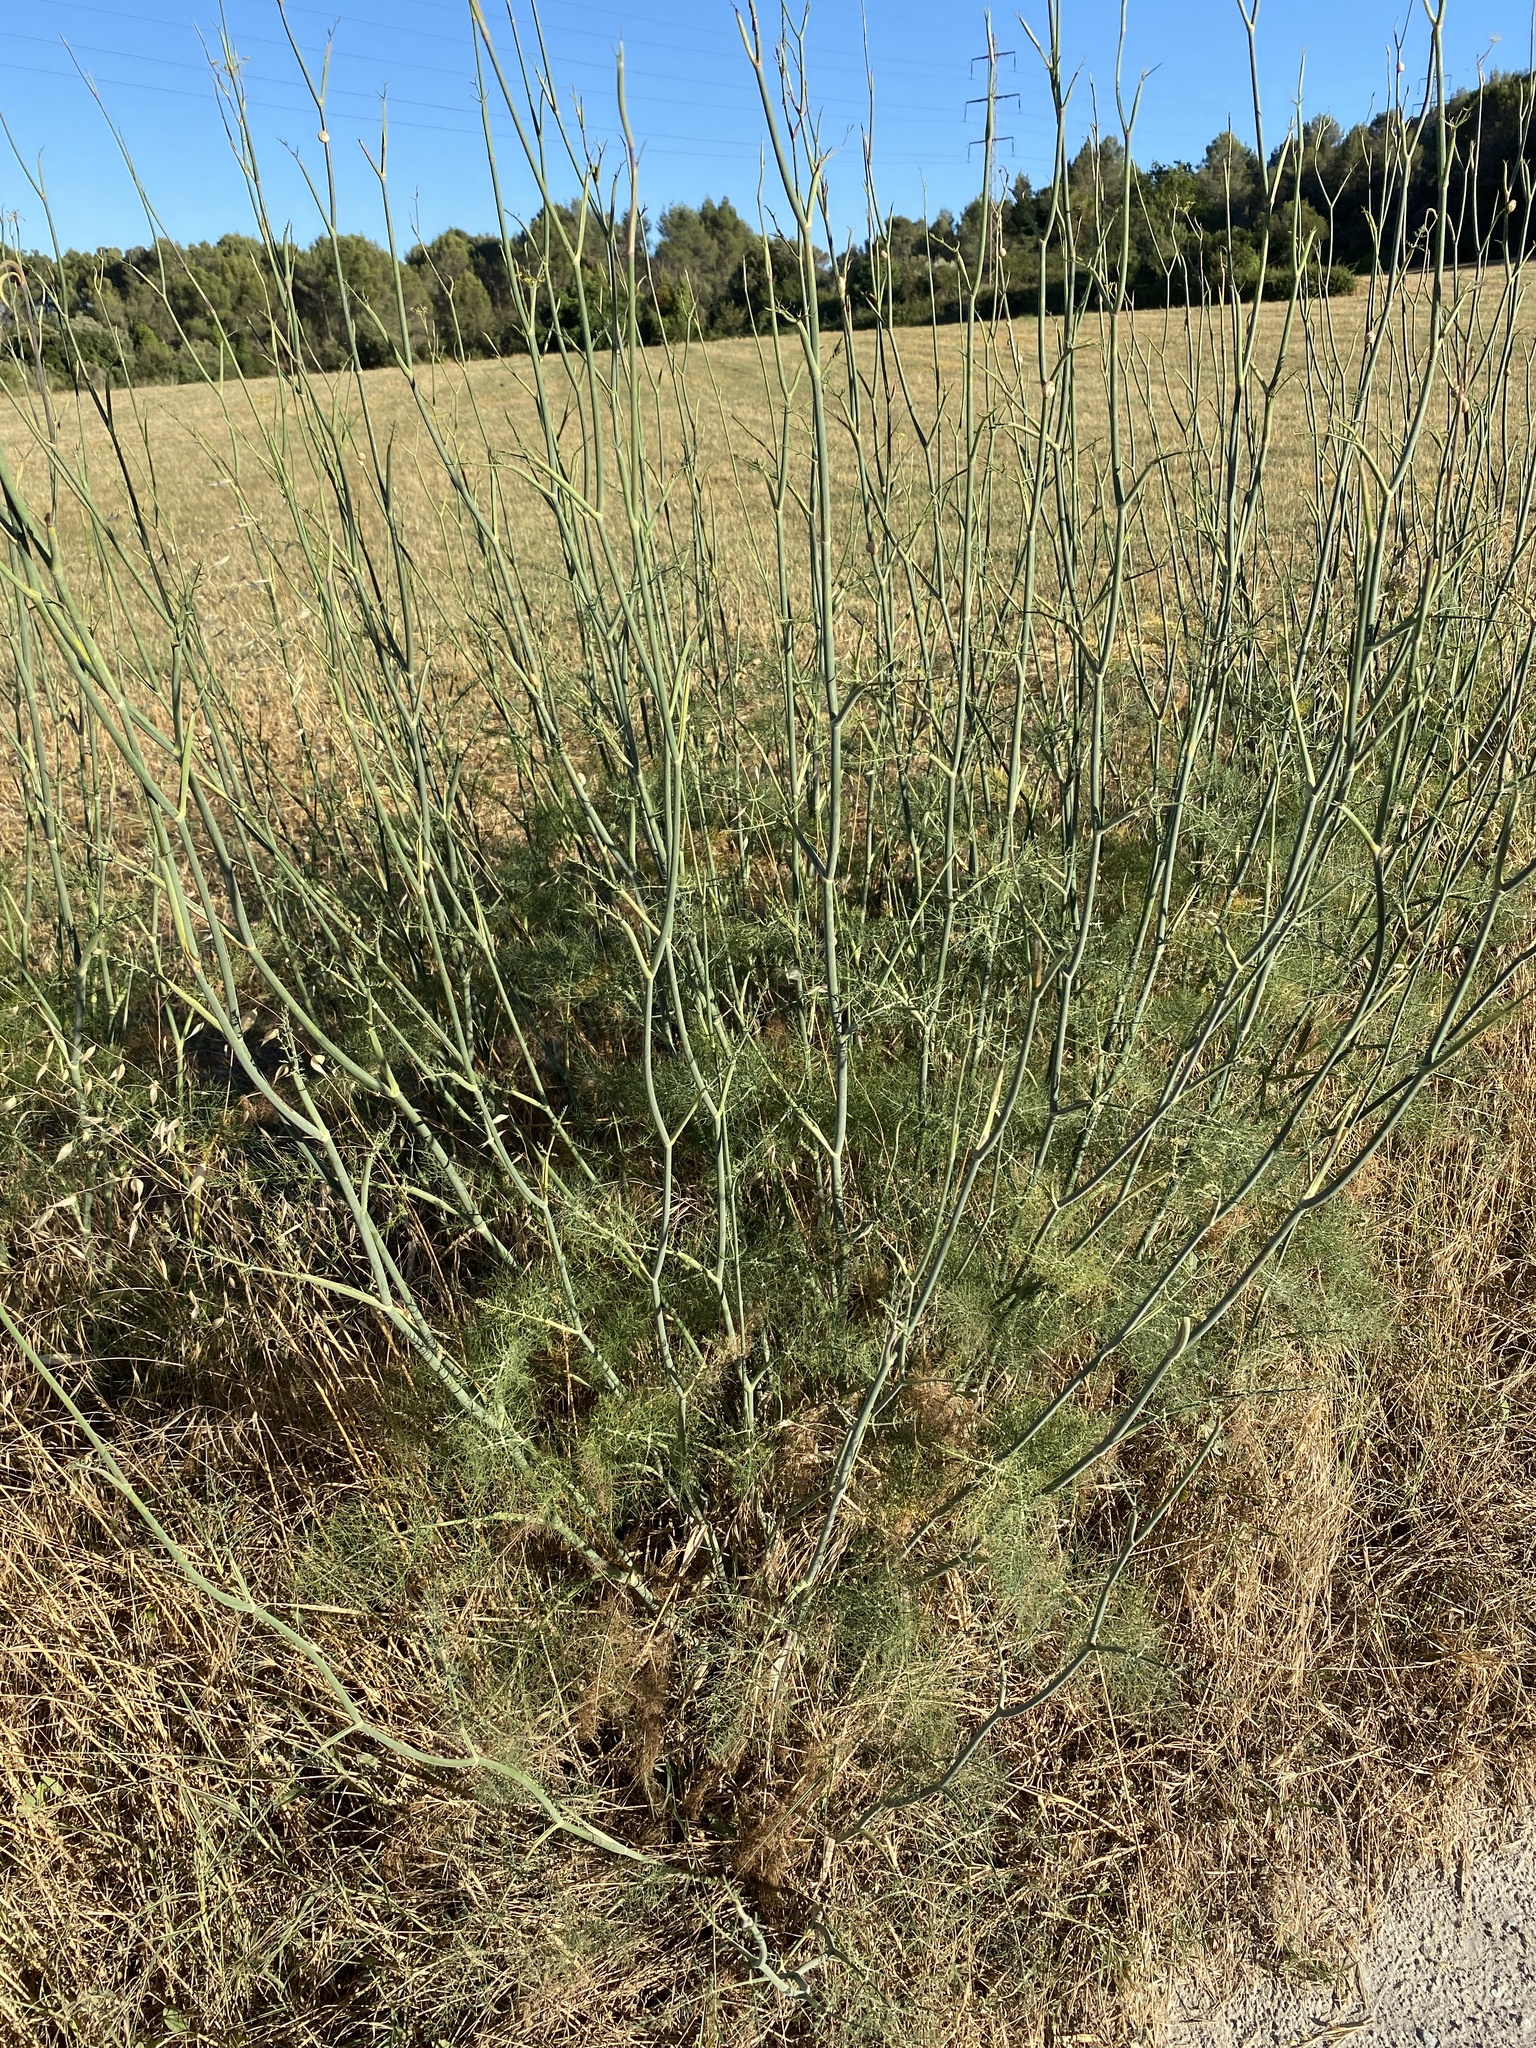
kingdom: Plantae
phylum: Tracheophyta
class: Magnoliopsida
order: Apiales
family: Apiaceae
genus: Foeniculum
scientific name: Foeniculum vulgare
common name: Fennel
